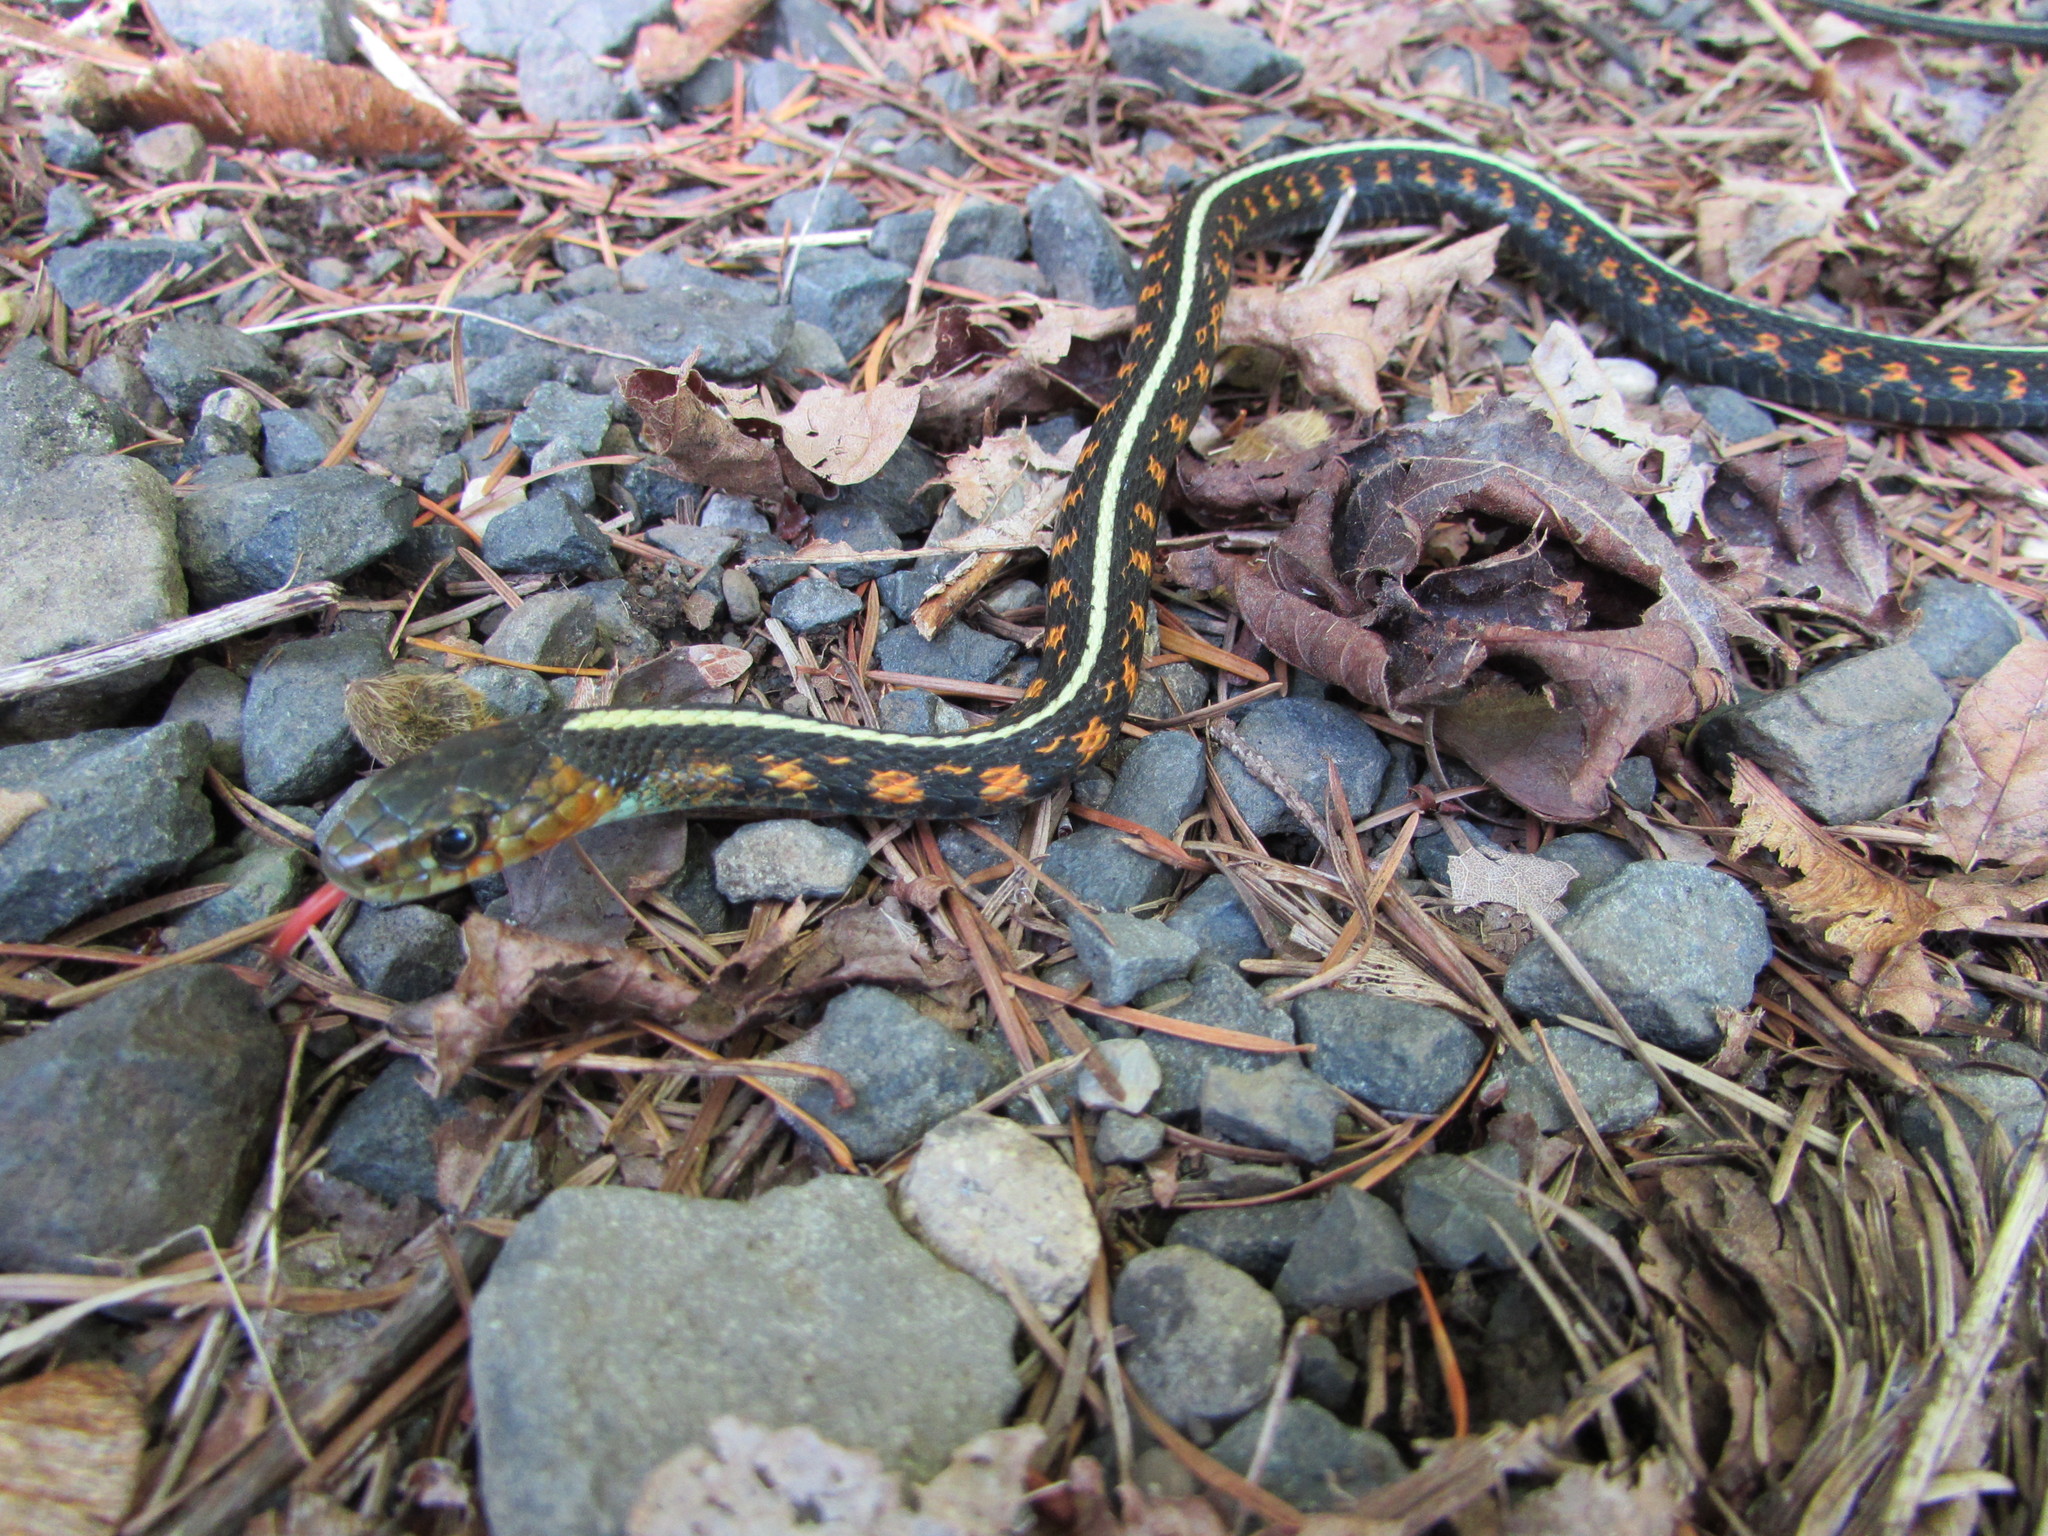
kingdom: Animalia
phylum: Chordata
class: Squamata
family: Colubridae
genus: Thamnophis
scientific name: Thamnophis sirtalis
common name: Common garter snake
